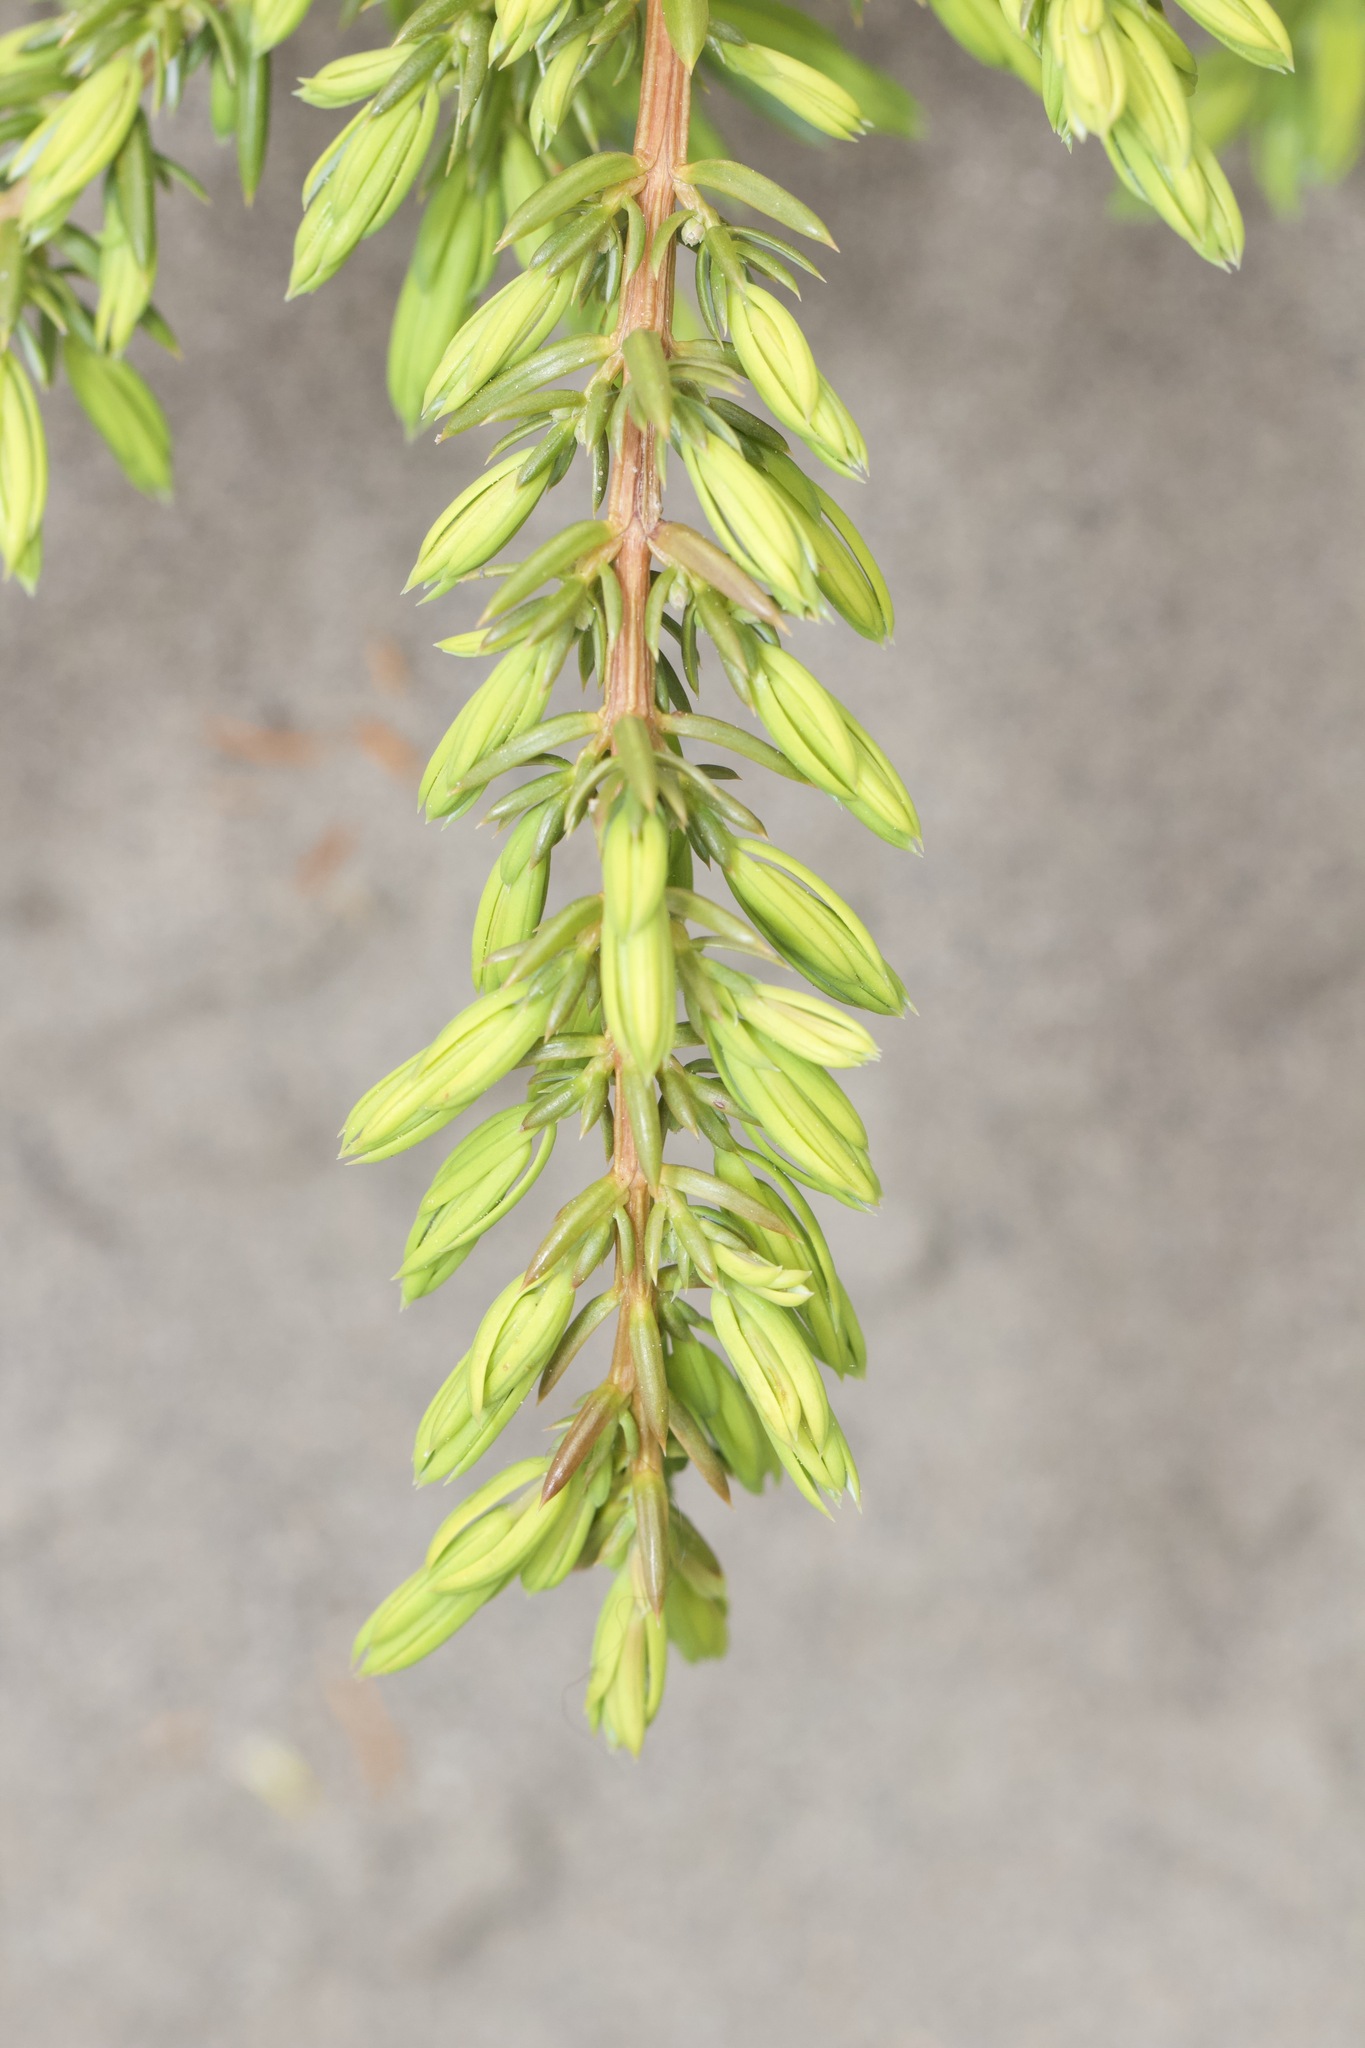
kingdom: Plantae
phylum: Tracheophyta
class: Pinopsida
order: Pinales
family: Cupressaceae
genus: Juniperus
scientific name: Juniperus communis
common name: Common juniper
